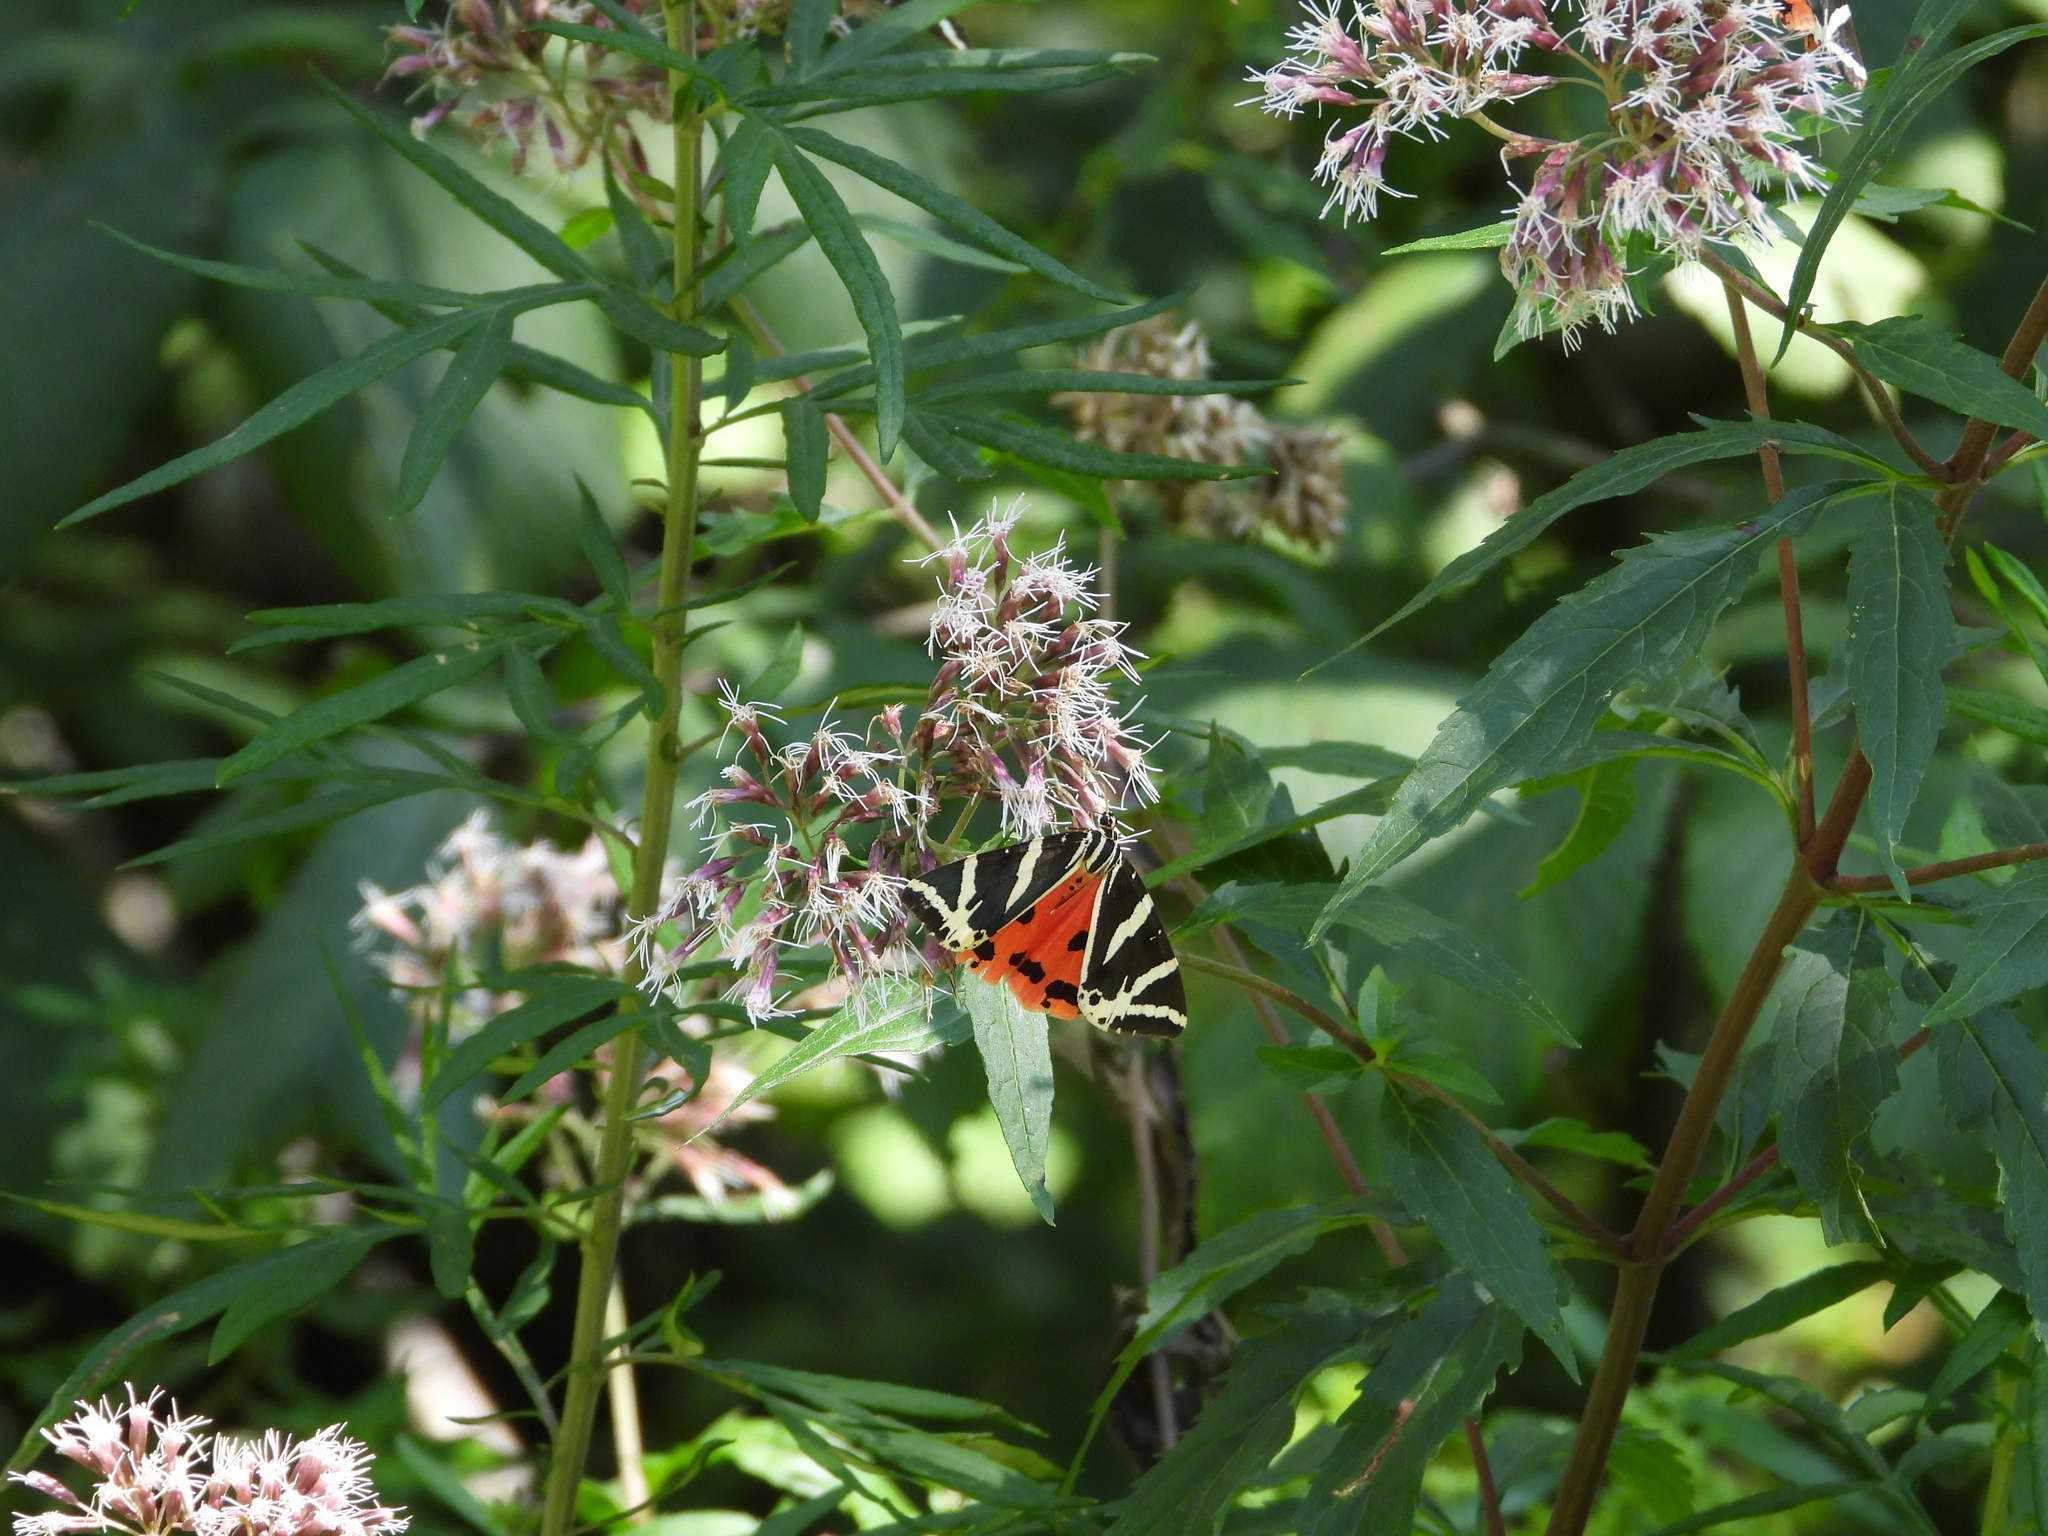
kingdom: Animalia
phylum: Arthropoda
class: Insecta
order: Lepidoptera
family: Erebidae
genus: Euplagia
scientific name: Euplagia quadripunctaria
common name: Jersey tiger
